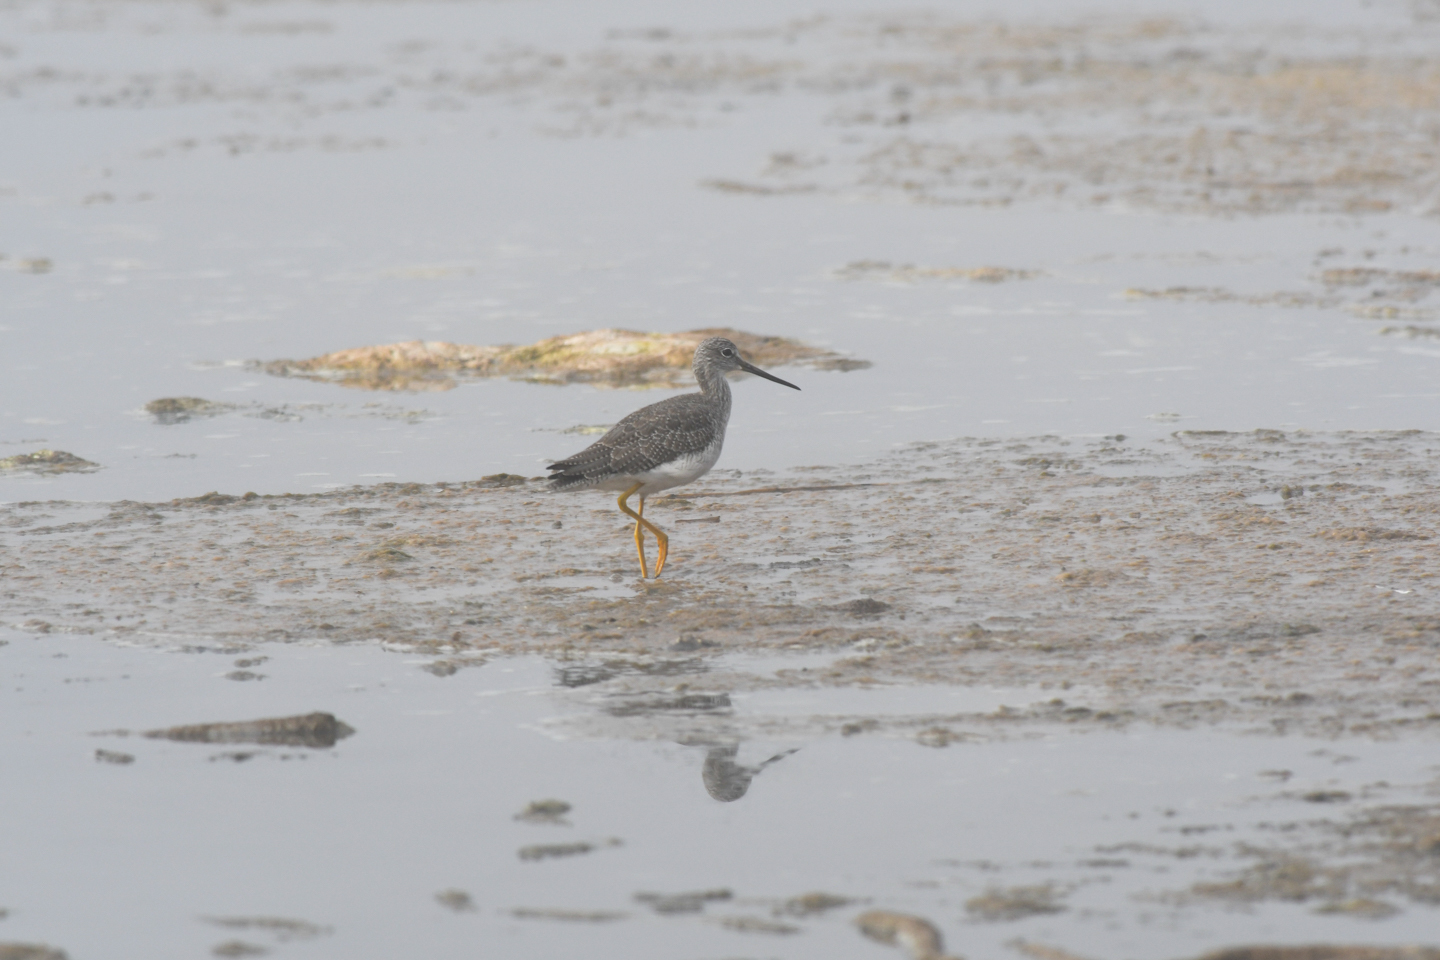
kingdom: Animalia
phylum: Chordata
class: Aves
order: Charadriiformes
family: Scolopacidae
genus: Tringa
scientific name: Tringa melanoleuca
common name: Greater yellowlegs
